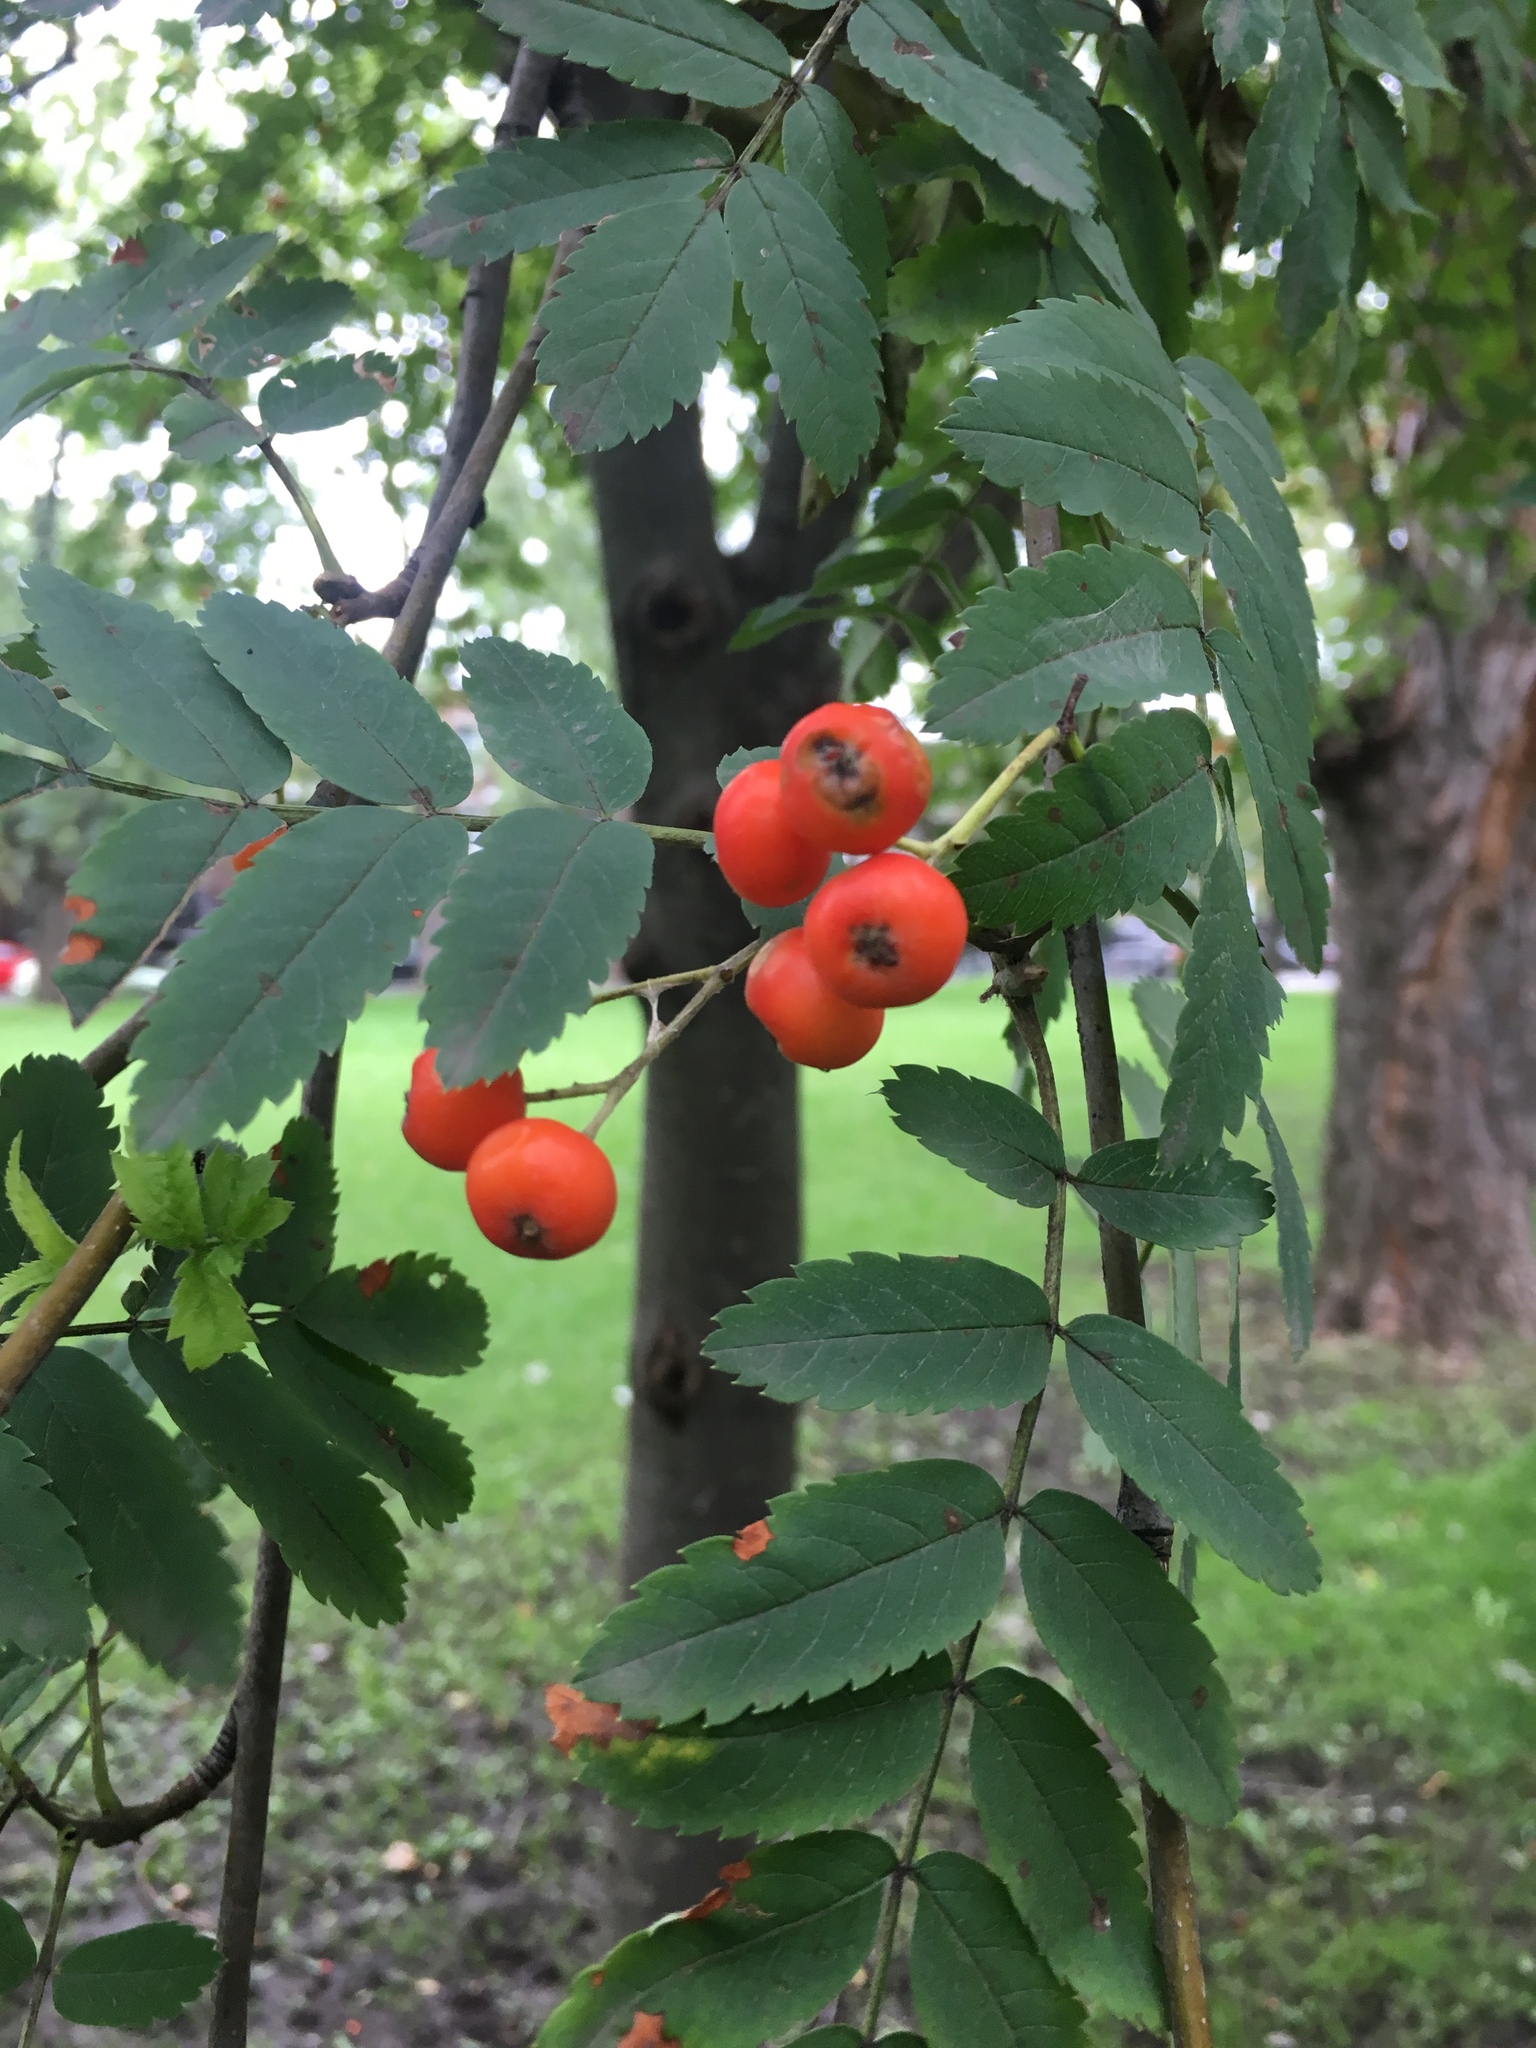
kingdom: Plantae
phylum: Tracheophyta
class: Magnoliopsida
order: Rosales
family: Rosaceae
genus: Sorbus
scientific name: Sorbus aucuparia
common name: Rowan
